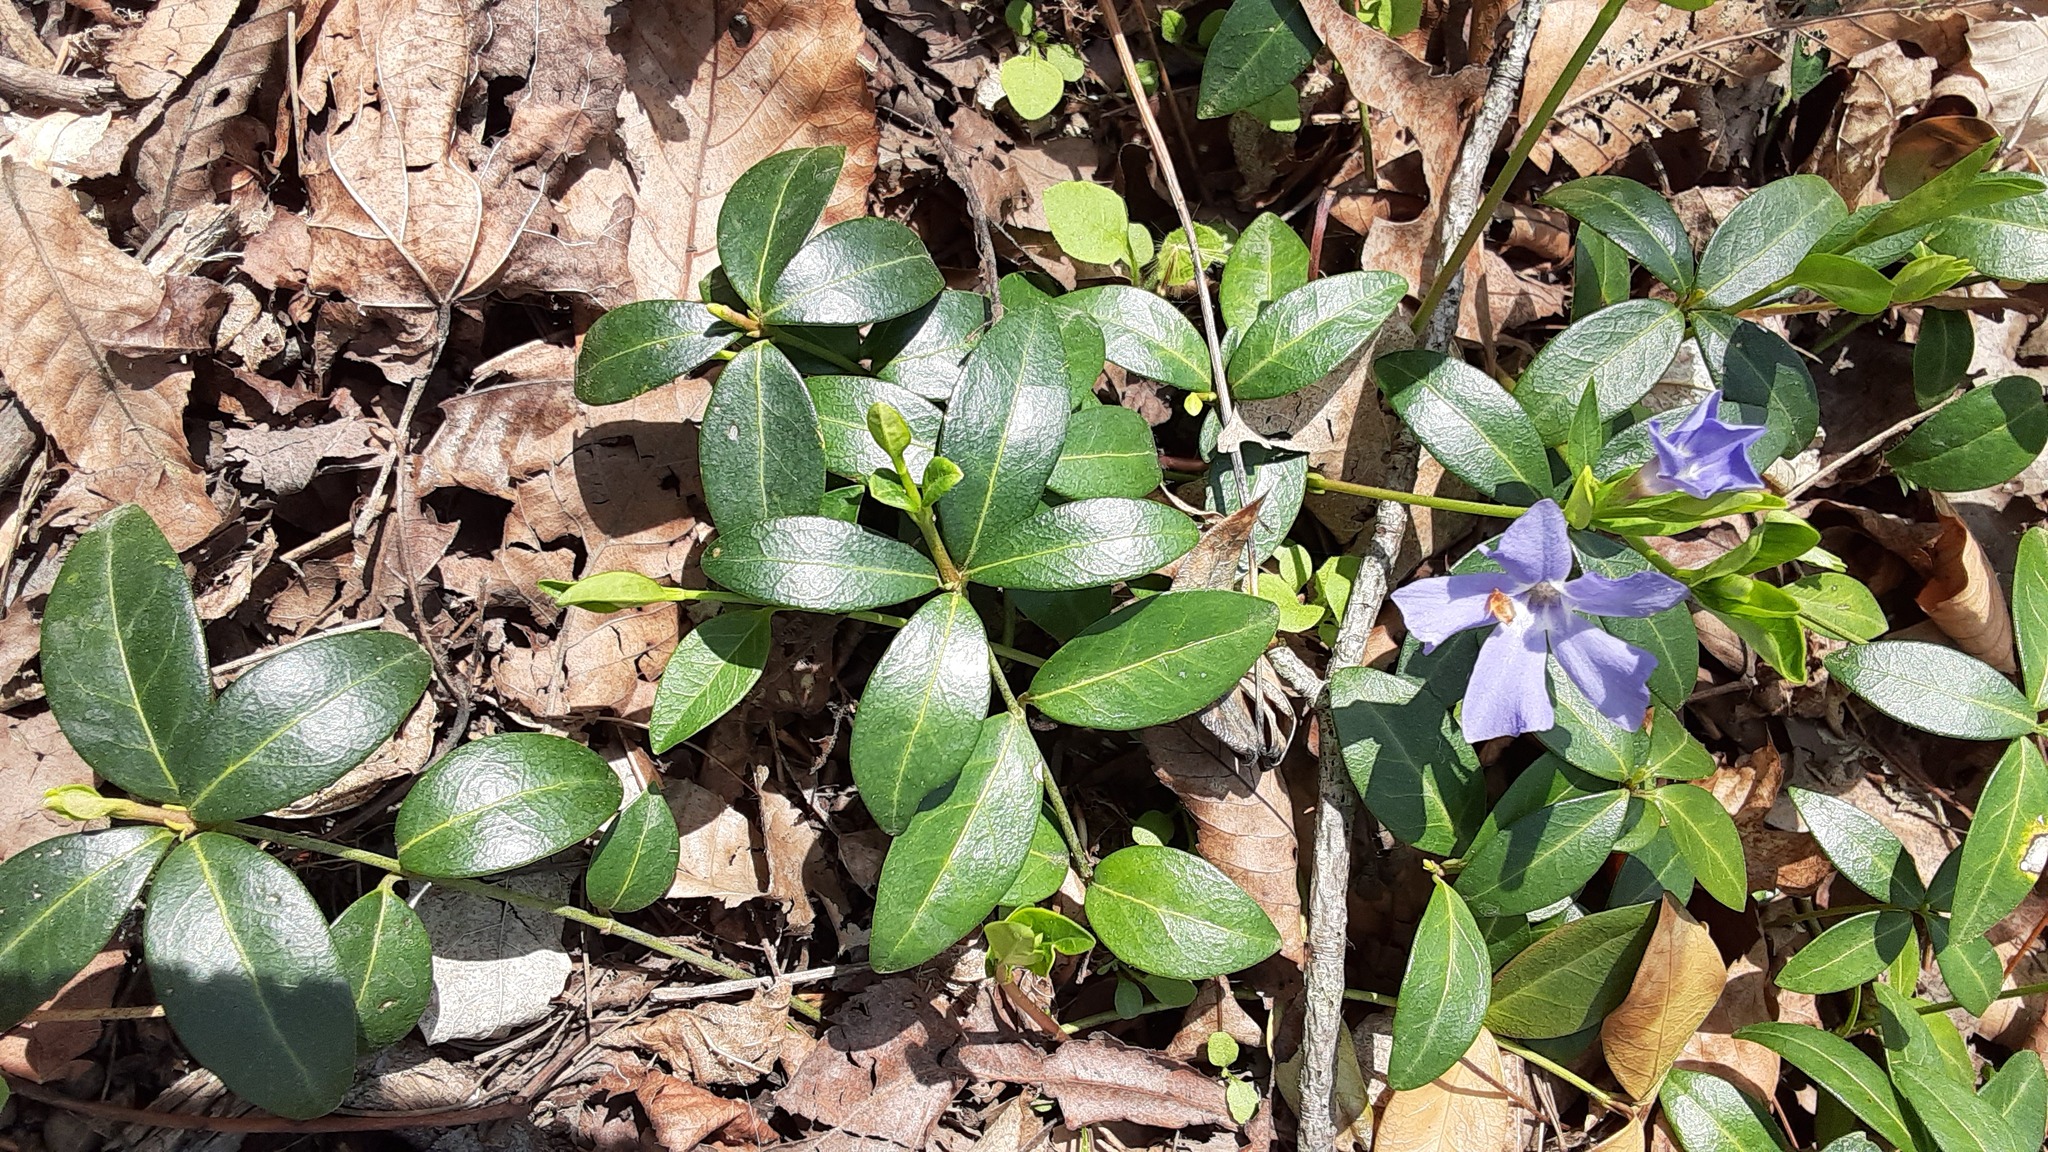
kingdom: Plantae
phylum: Tracheophyta
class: Magnoliopsida
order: Gentianales
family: Apocynaceae
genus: Vinca
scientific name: Vinca minor
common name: Lesser periwinkle
